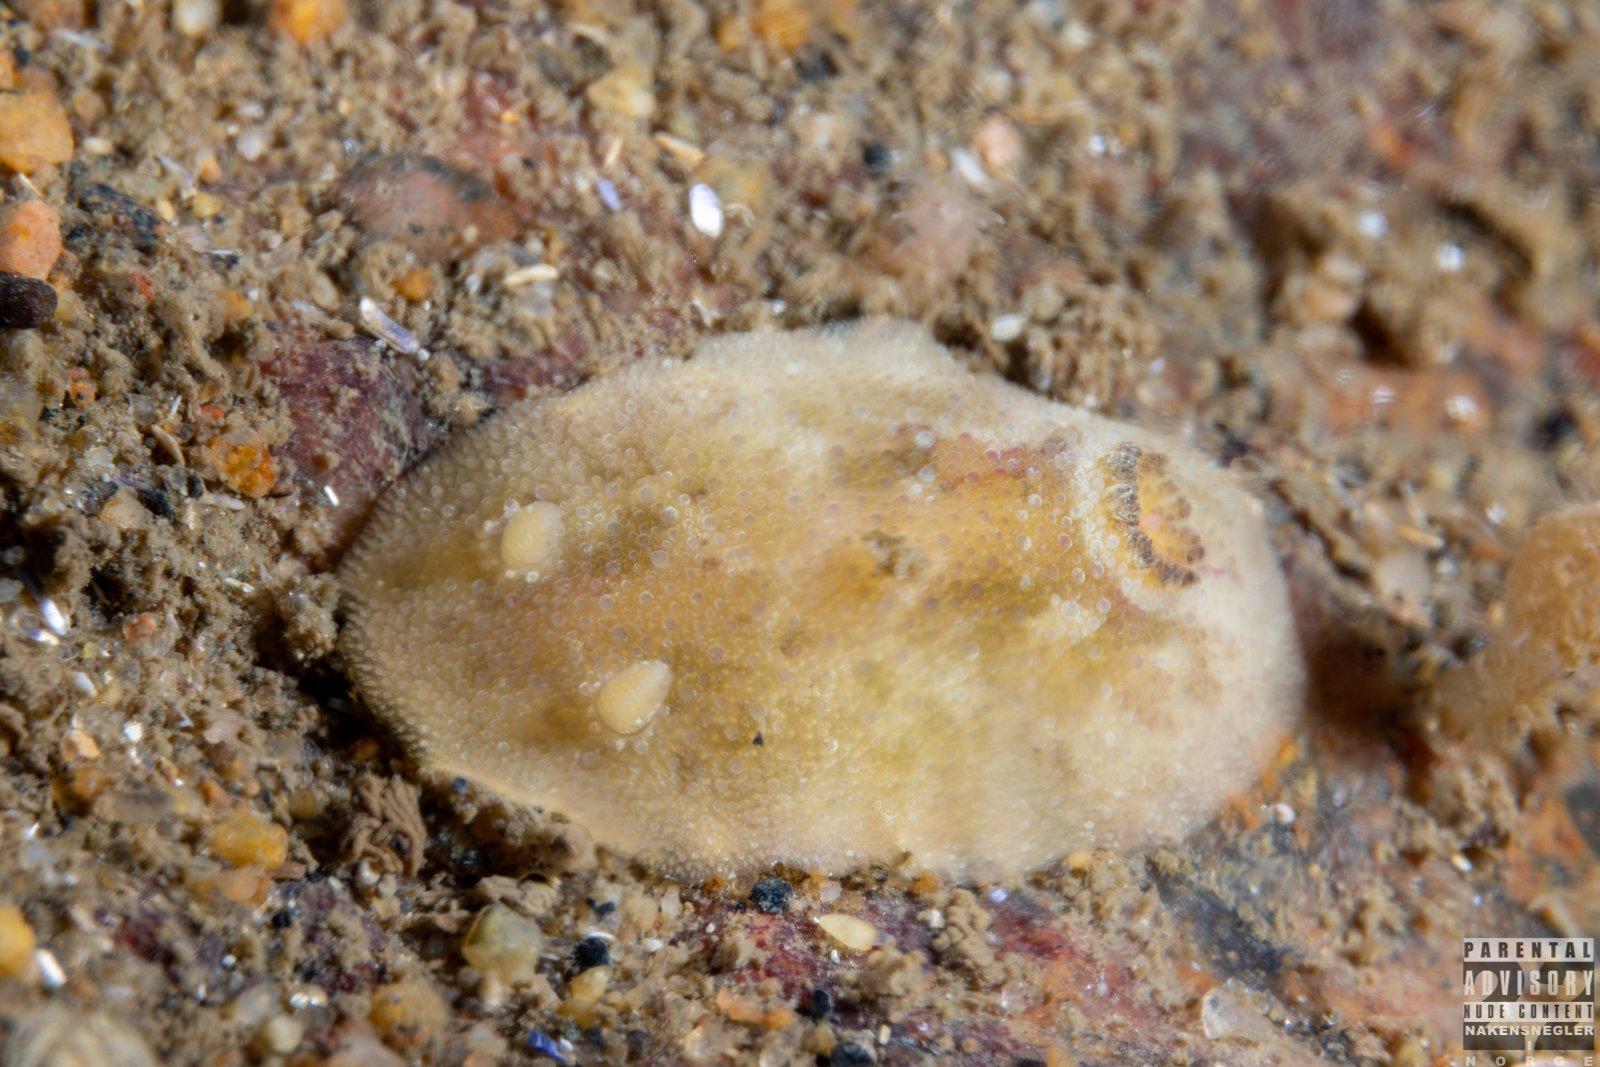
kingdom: Animalia
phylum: Mollusca
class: Gastropoda
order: Nudibranchia
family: Dorididae
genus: Doris
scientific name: Doris pseudoargus
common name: Sea lemon
